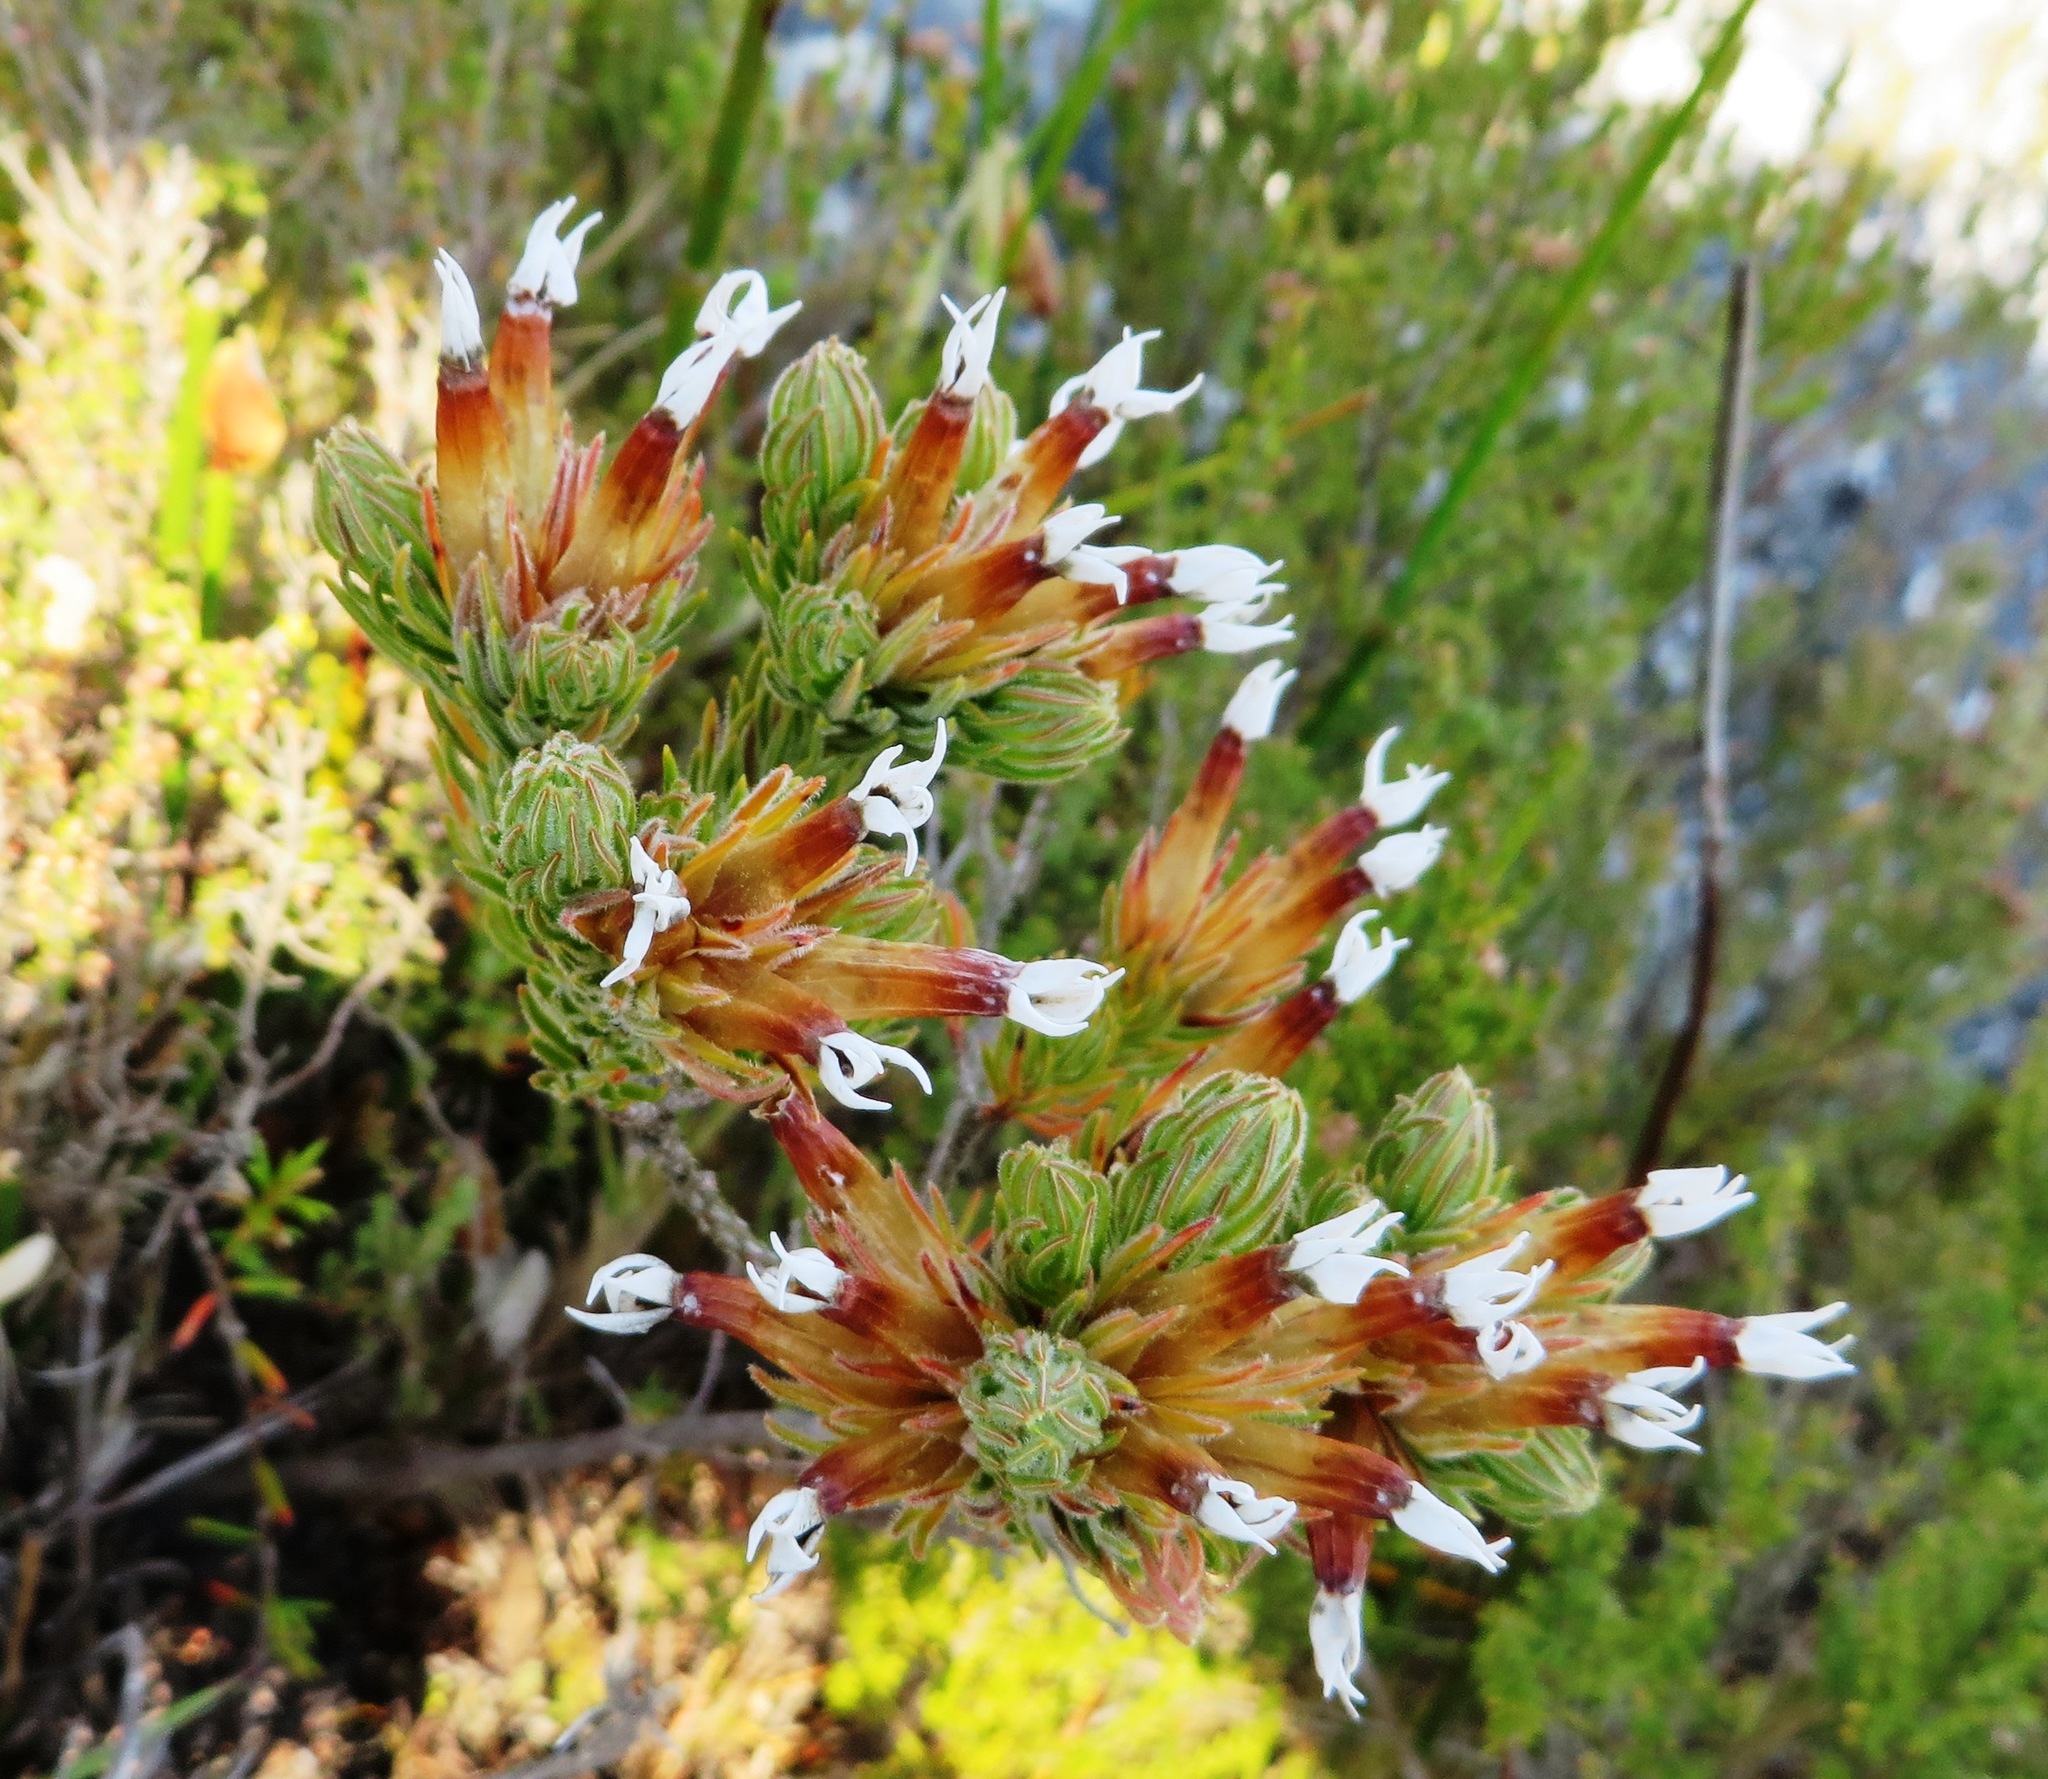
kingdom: Plantae
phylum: Tracheophyta
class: Magnoliopsida
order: Ericales
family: Ericaceae
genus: Erica
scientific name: Erica vallis-gratiae
